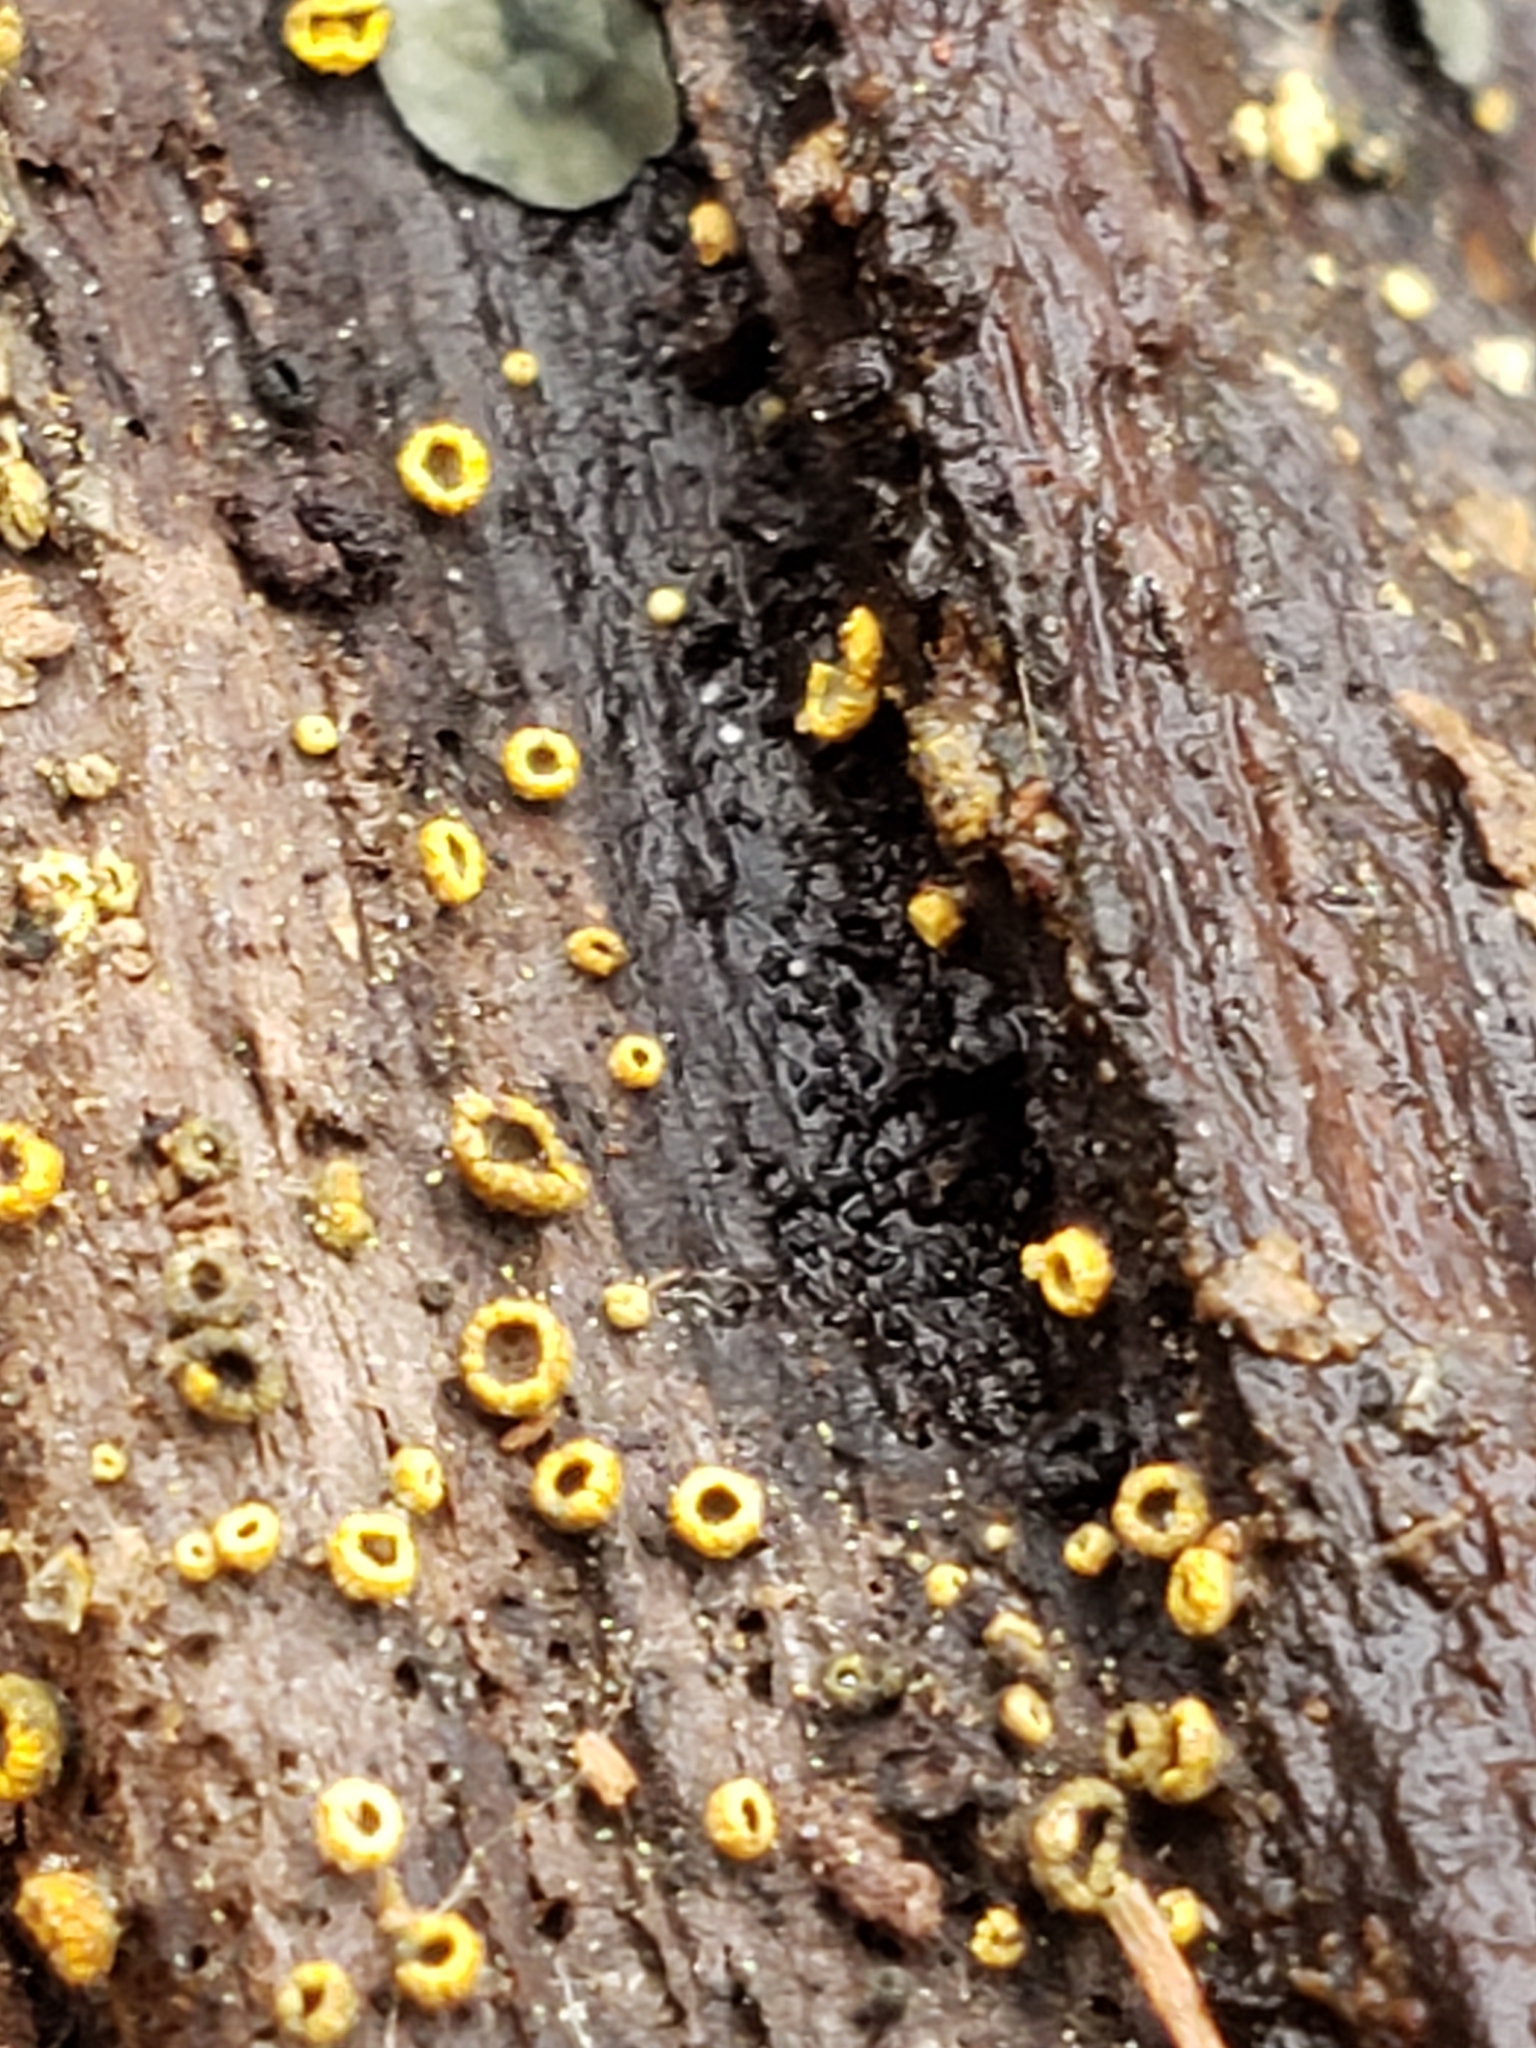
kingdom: Fungi
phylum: Ascomycota
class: Leotiomycetes
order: Helotiales
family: Chlorospleniaceae
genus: Chlorosplenium
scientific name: Chlorosplenium chlora
